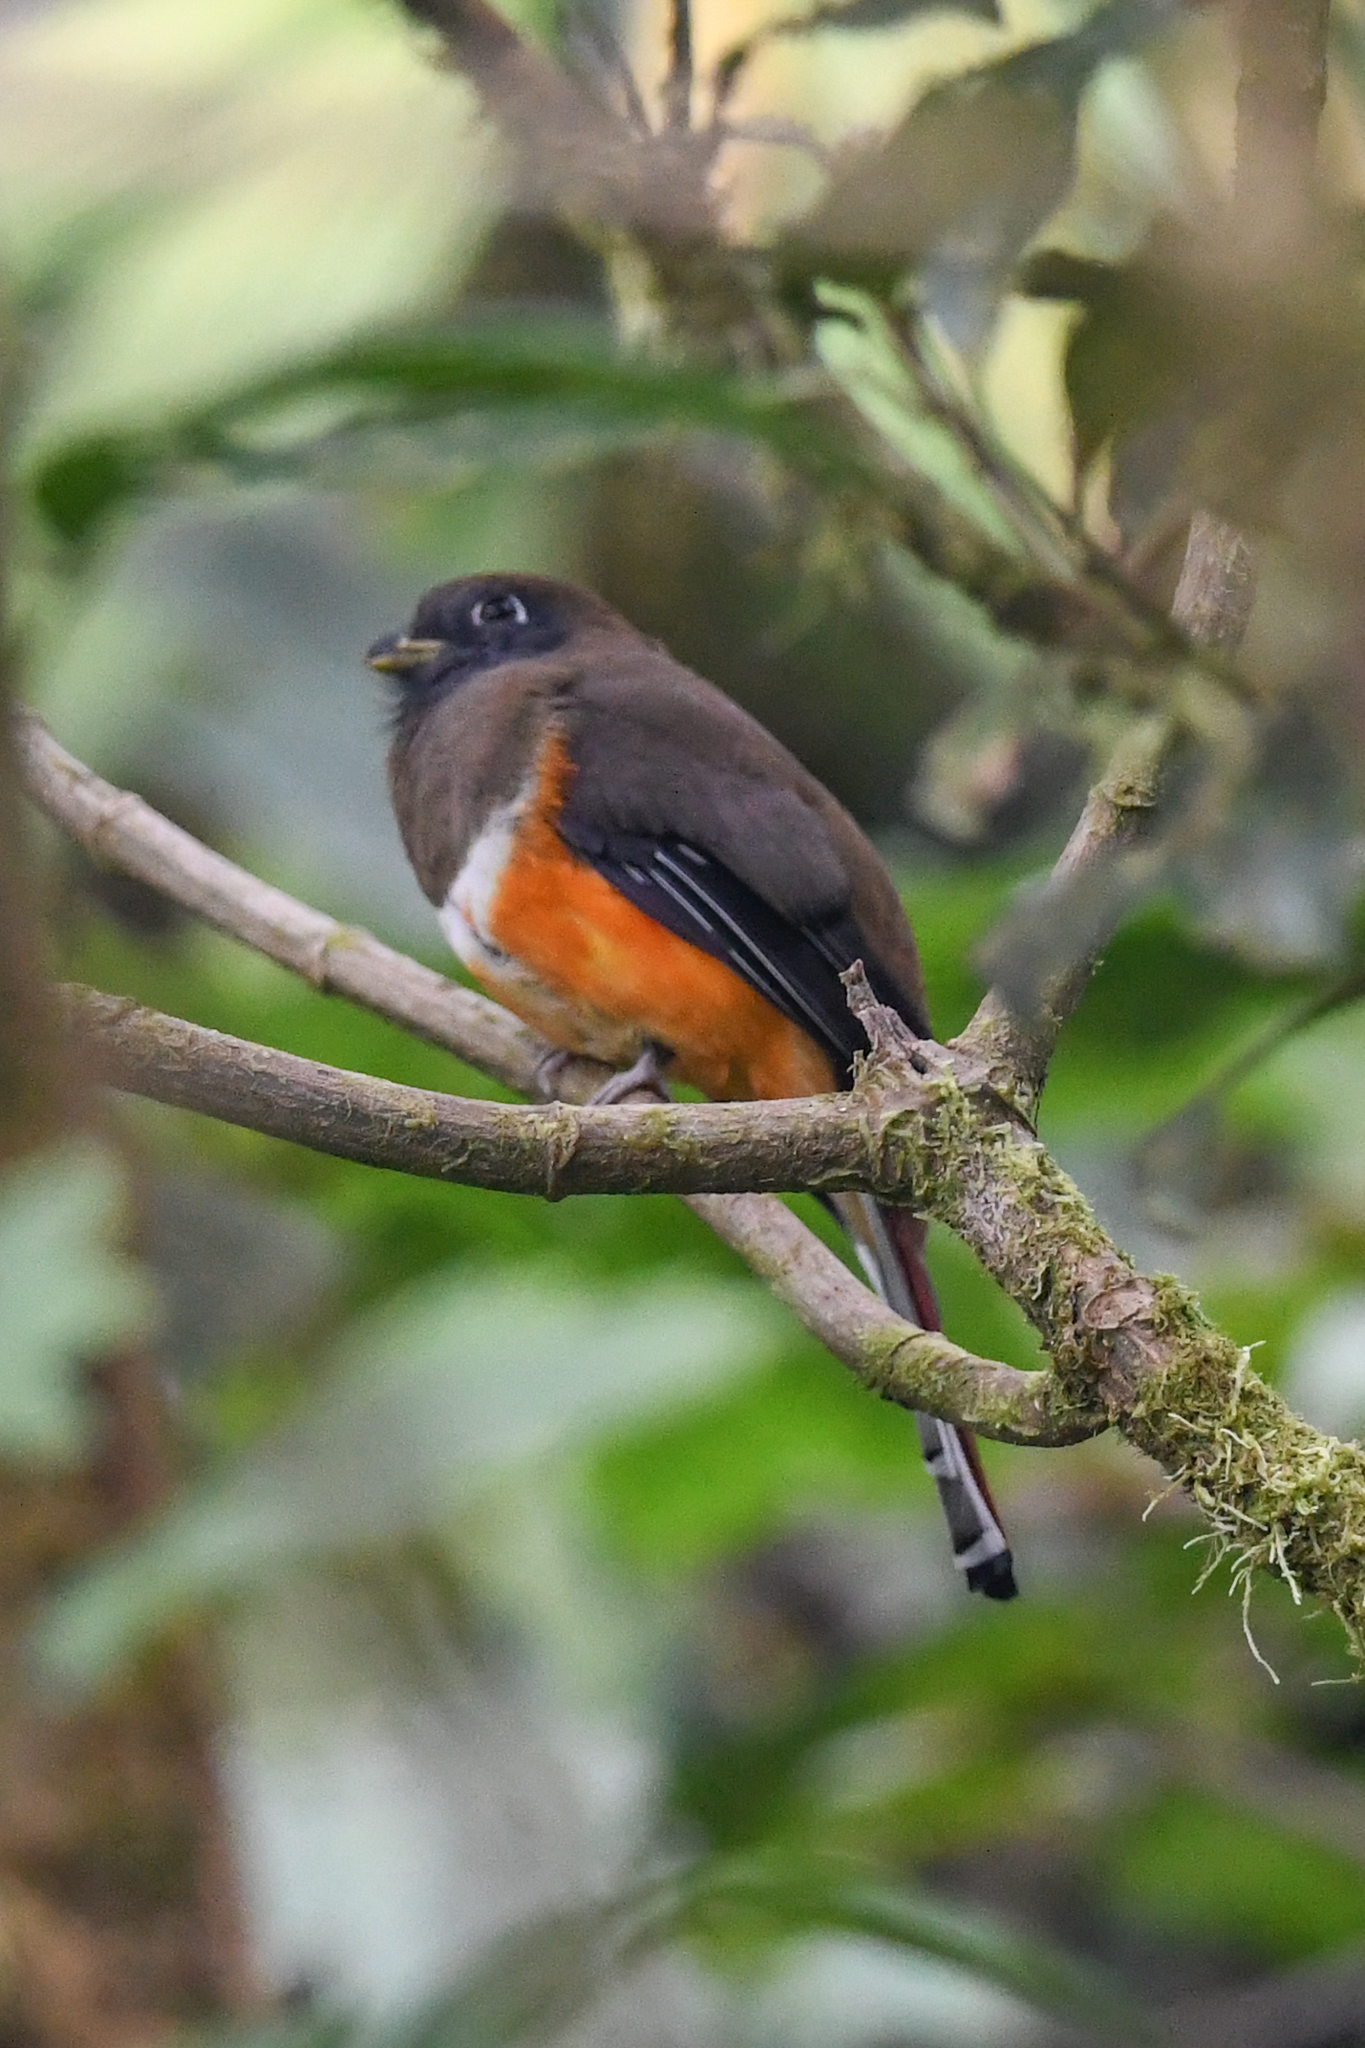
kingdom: Animalia
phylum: Chordata
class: Aves
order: Trogoniformes
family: Trogonidae
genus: Trogon
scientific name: Trogon collaris
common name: Collared trogon
